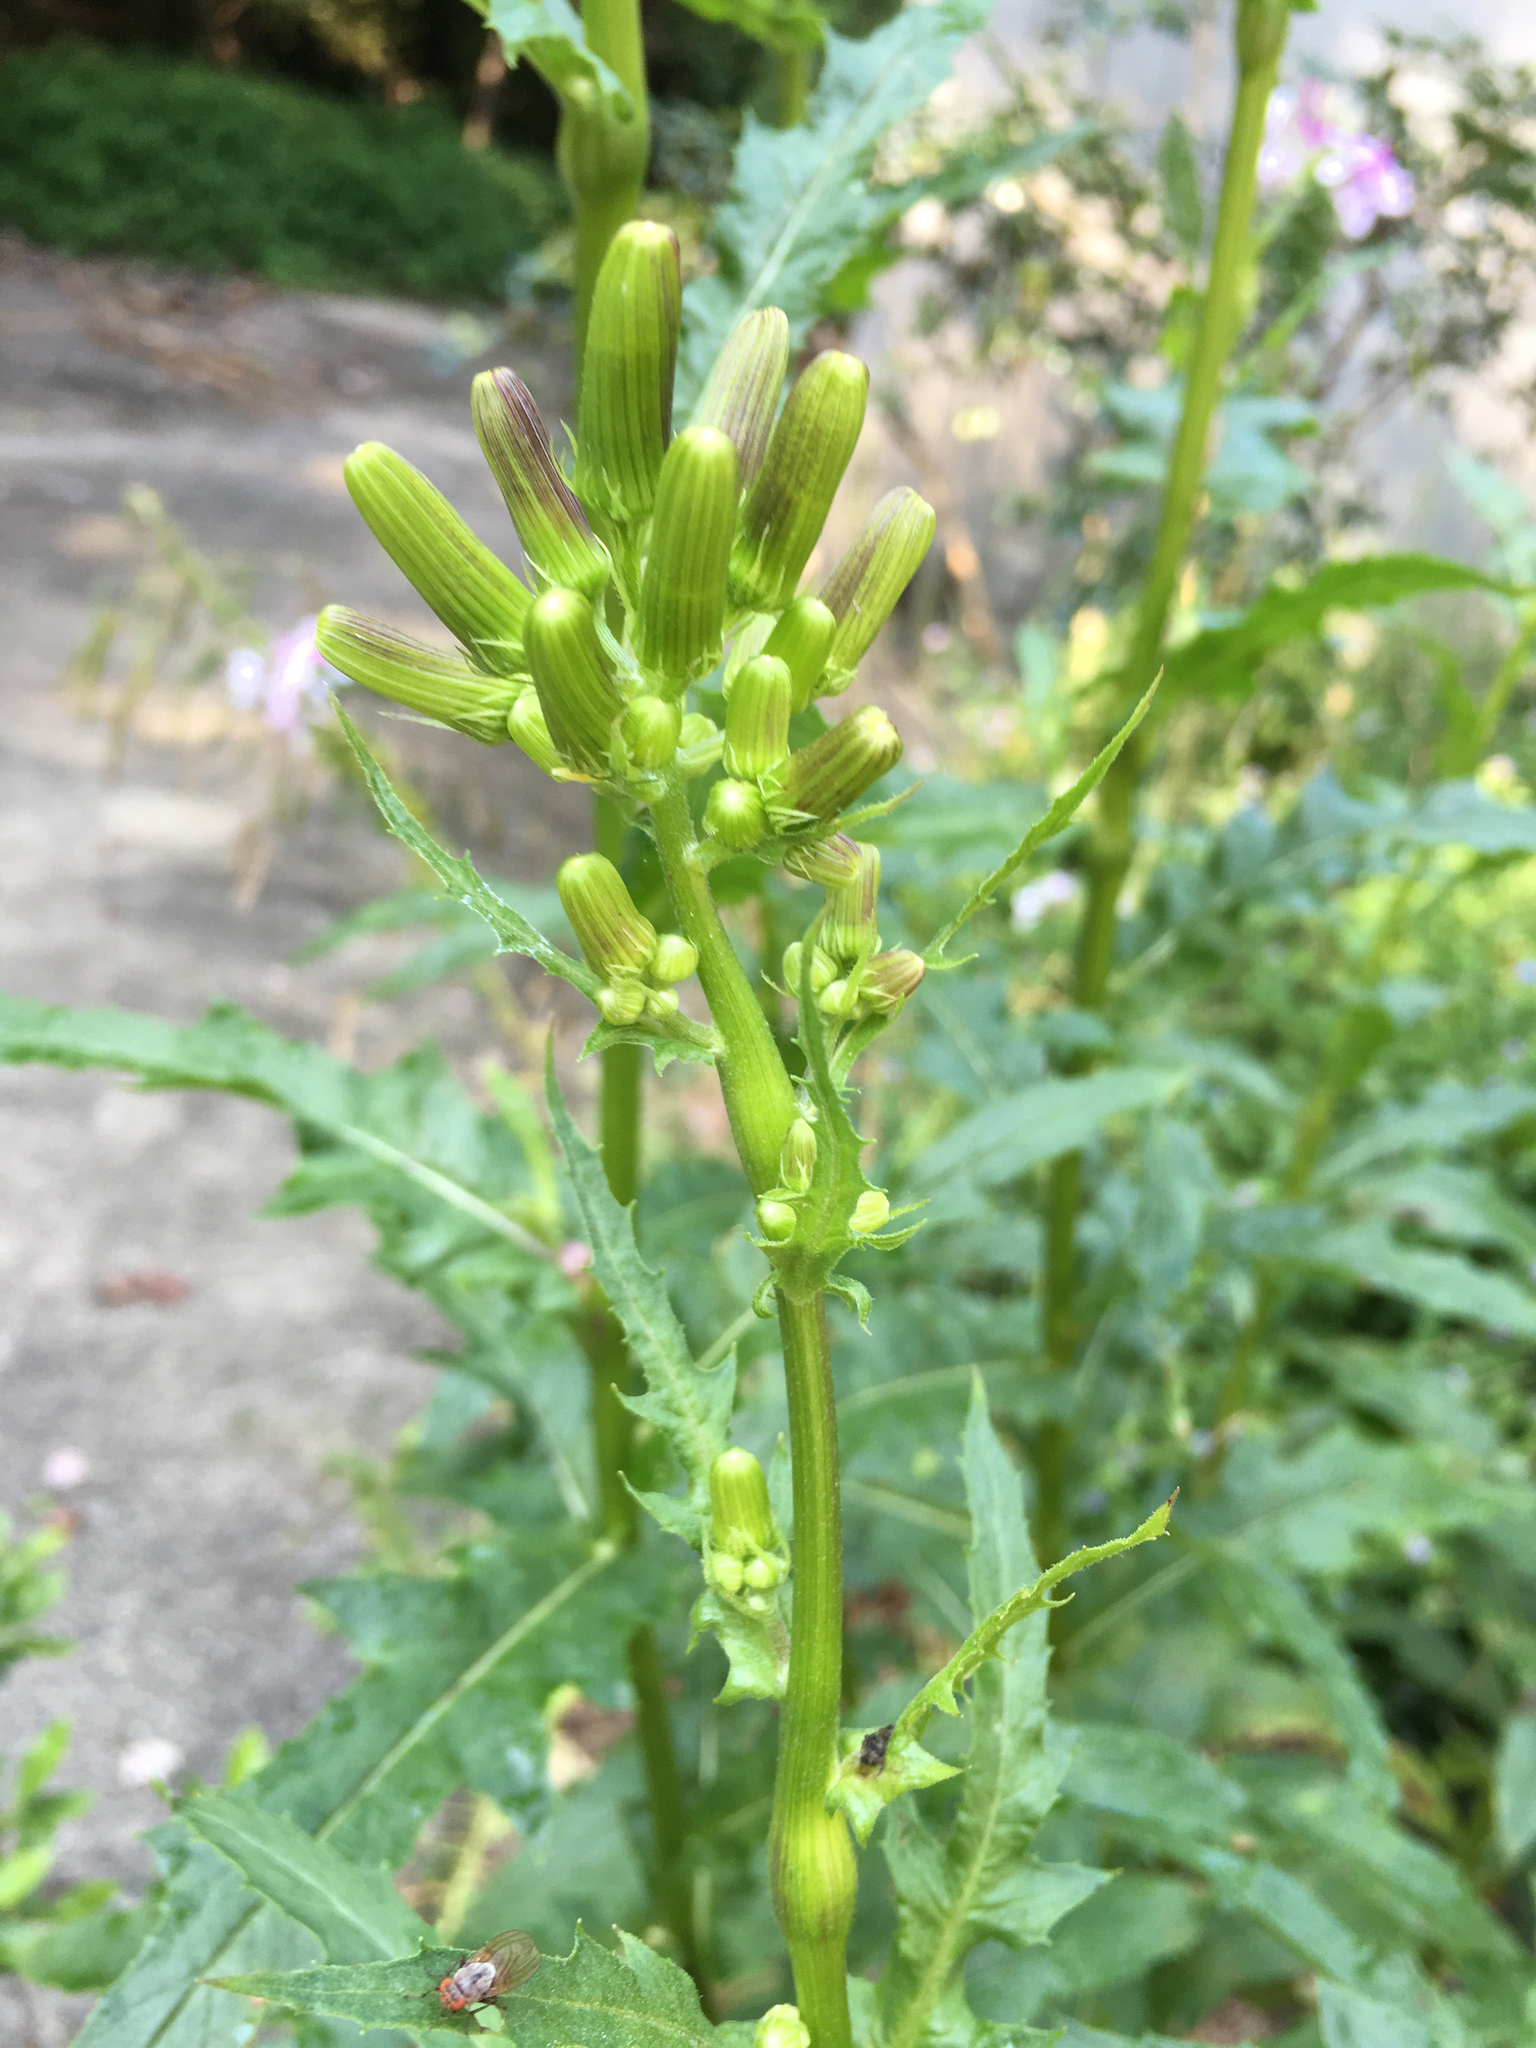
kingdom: Plantae
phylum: Tracheophyta
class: Magnoliopsida
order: Asterales
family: Asteraceae
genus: Erechtites
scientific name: Erechtites hieraciifolius
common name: American burnweed
